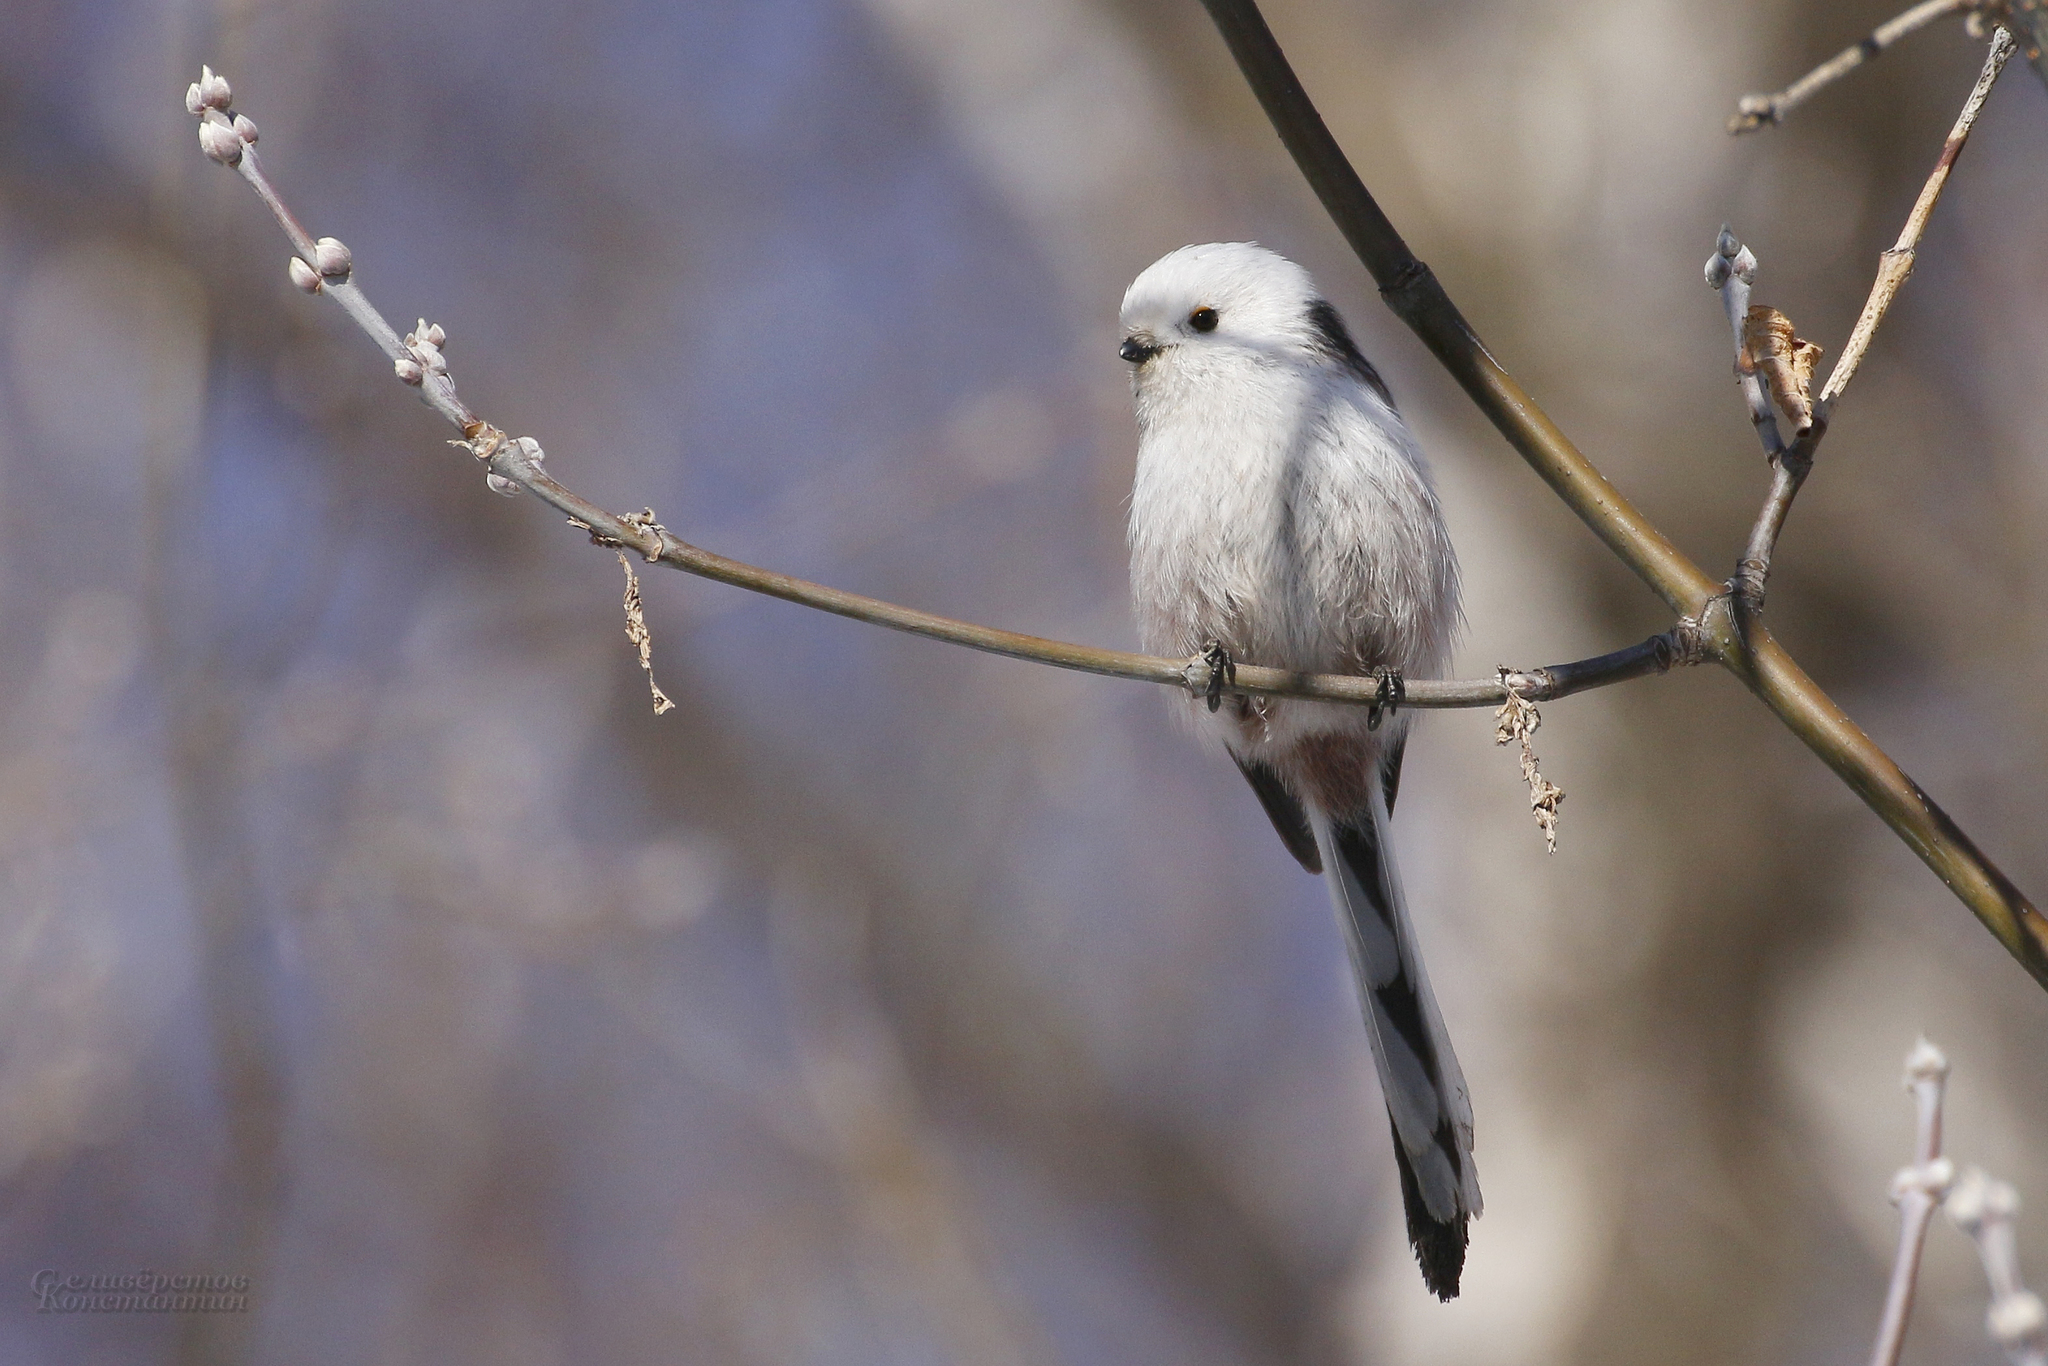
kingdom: Animalia
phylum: Chordata
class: Aves
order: Passeriformes
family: Aegithalidae
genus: Aegithalos
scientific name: Aegithalos caudatus
